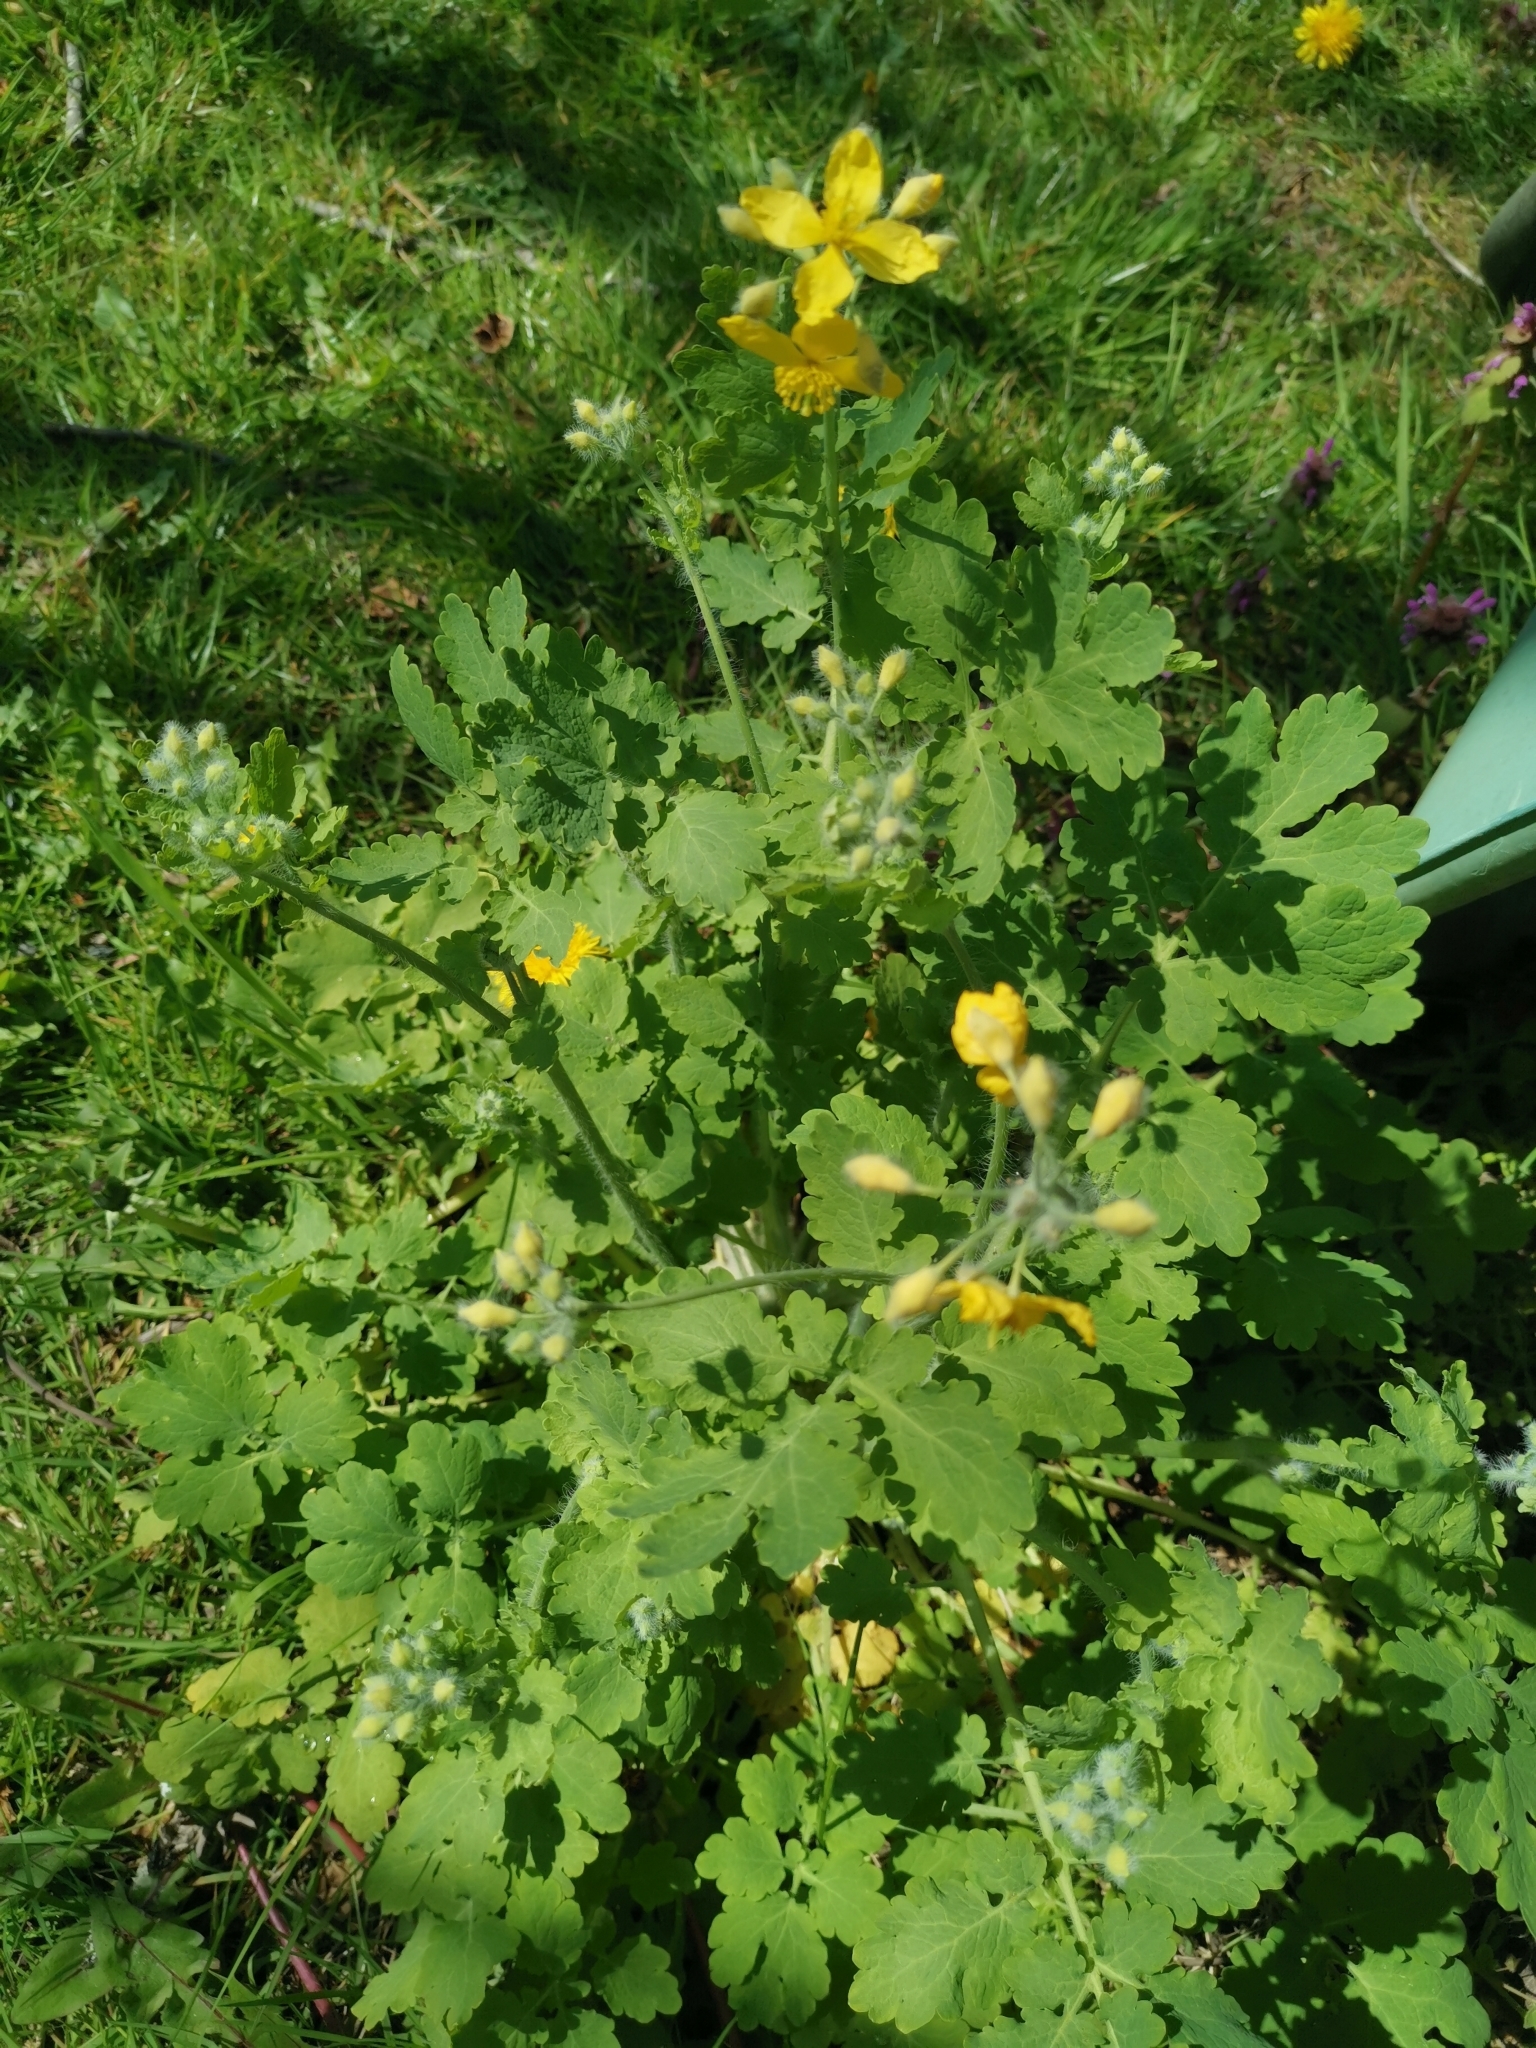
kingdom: Plantae
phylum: Tracheophyta
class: Magnoliopsida
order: Ranunculales
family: Papaveraceae
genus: Chelidonium
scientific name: Chelidonium majus
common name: Greater celandine
